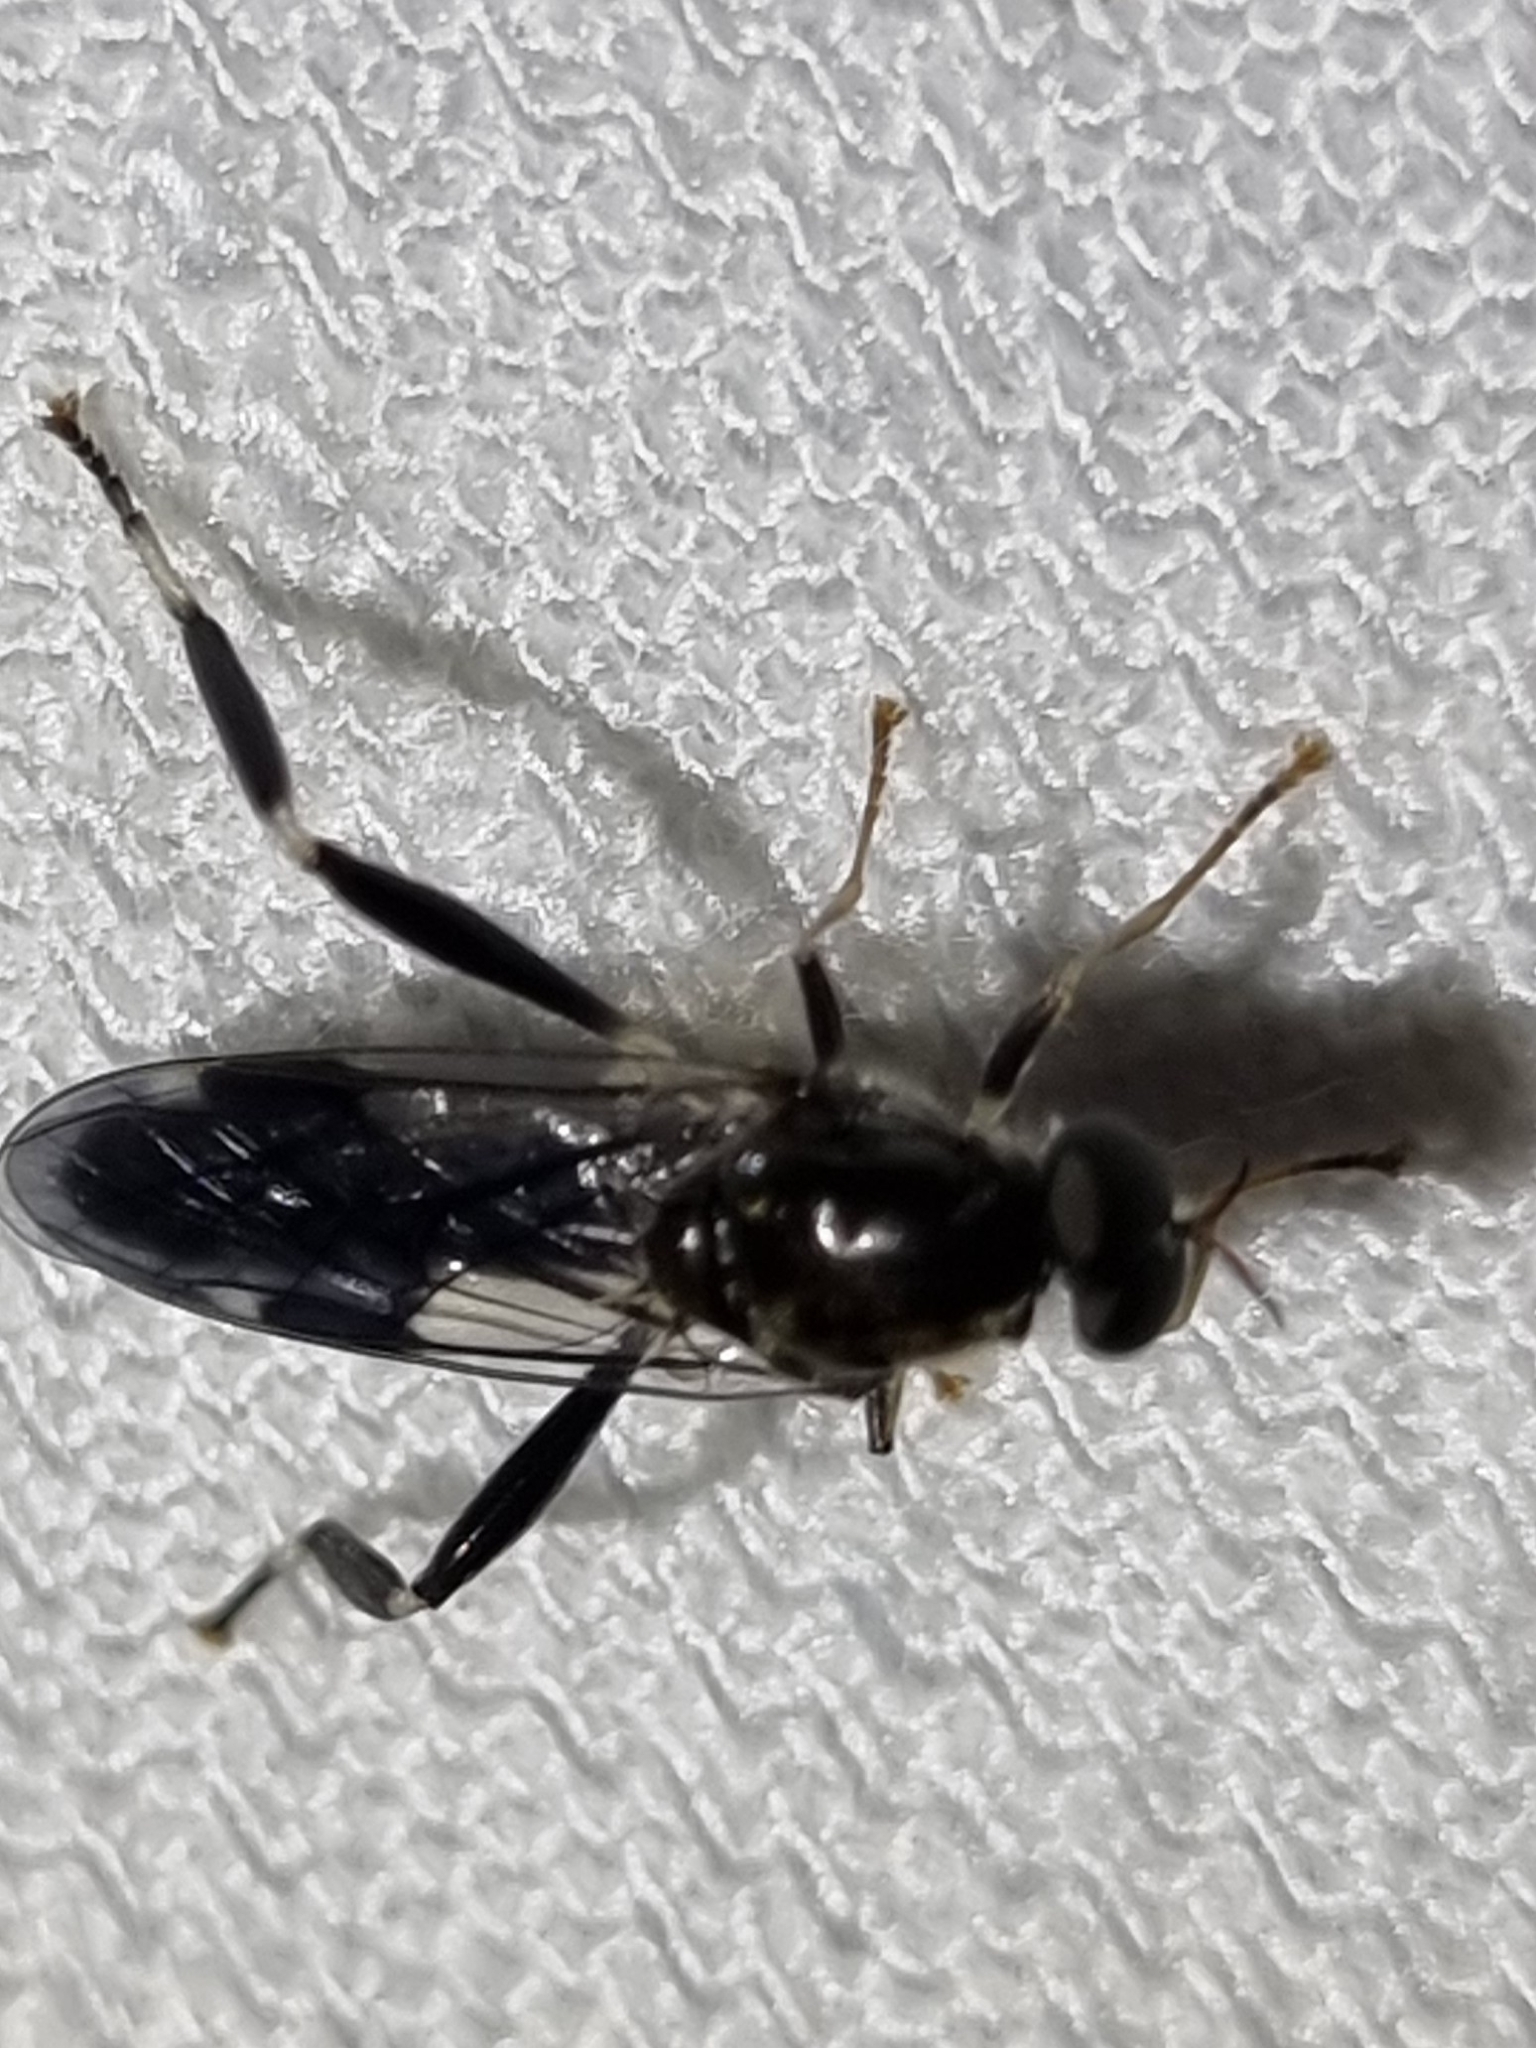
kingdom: Animalia
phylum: Arthropoda
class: Insecta
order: Diptera
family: Stratiomyidae
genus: Exaireta
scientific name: Exaireta spinigera
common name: Blue soldier fly
